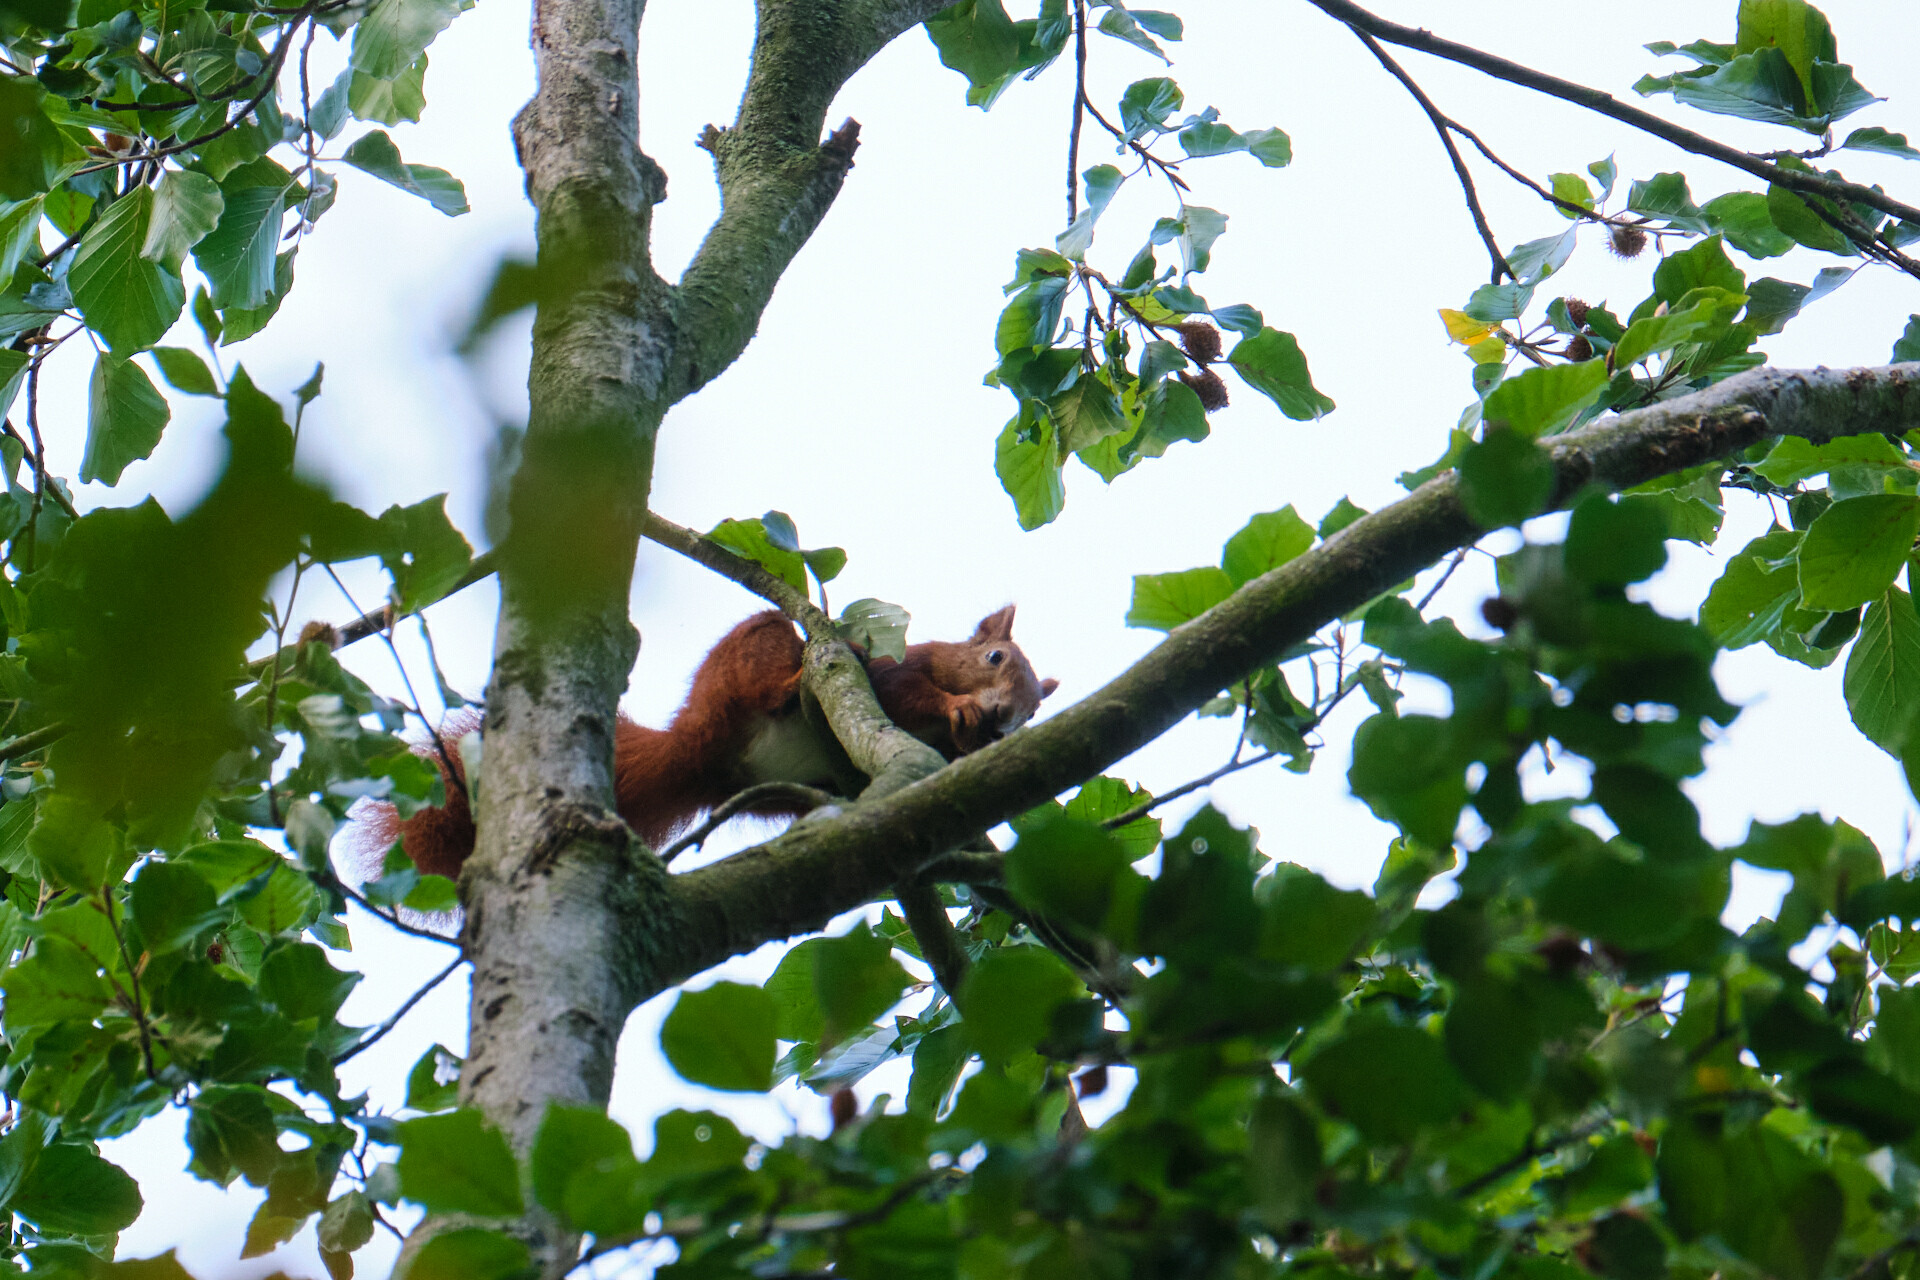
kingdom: Animalia
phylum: Chordata
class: Mammalia
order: Rodentia
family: Sciuridae
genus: Sciurus
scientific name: Sciurus vulgaris
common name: Eurasian red squirrel
